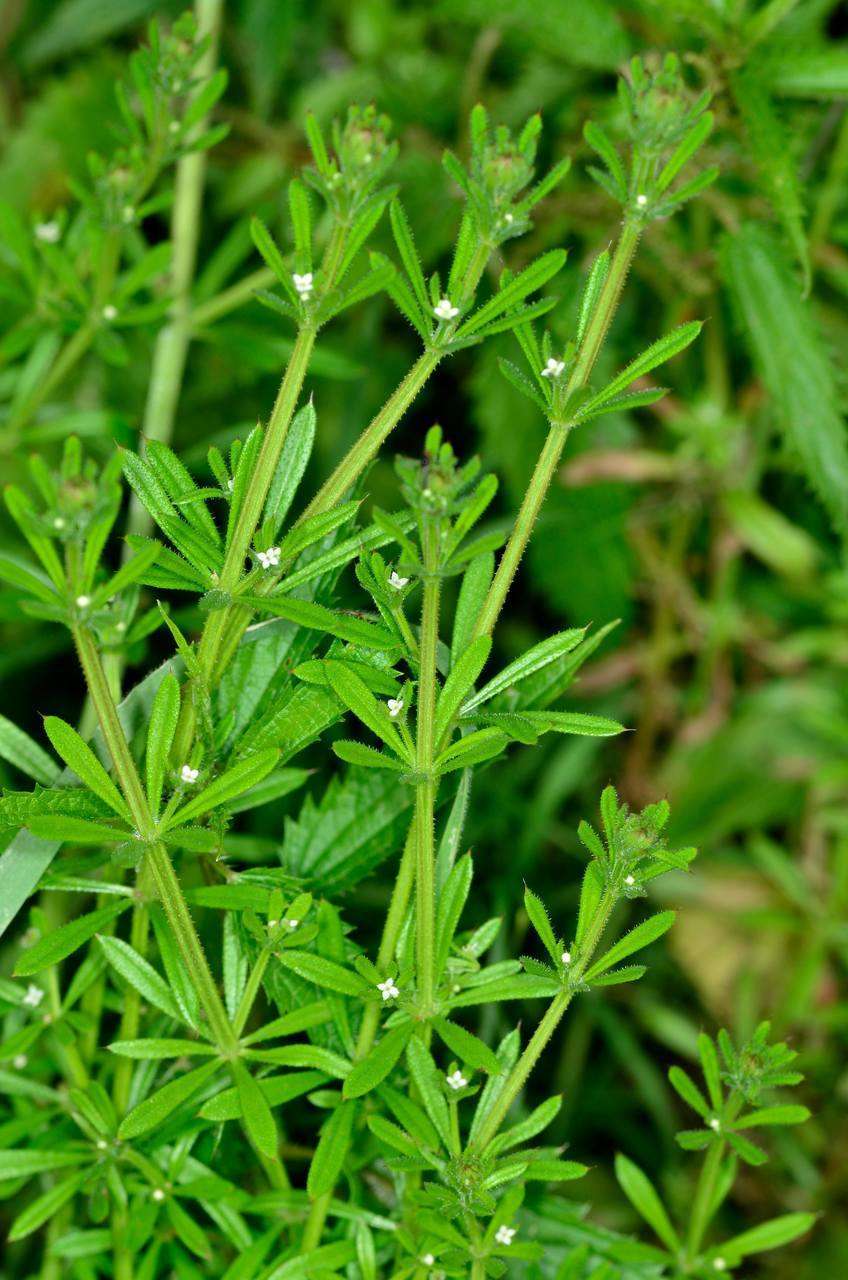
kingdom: Plantae
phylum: Tracheophyta
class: Magnoliopsida
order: Gentianales
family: Rubiaceae
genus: Galium
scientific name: Galium aparine
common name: Cleavers
